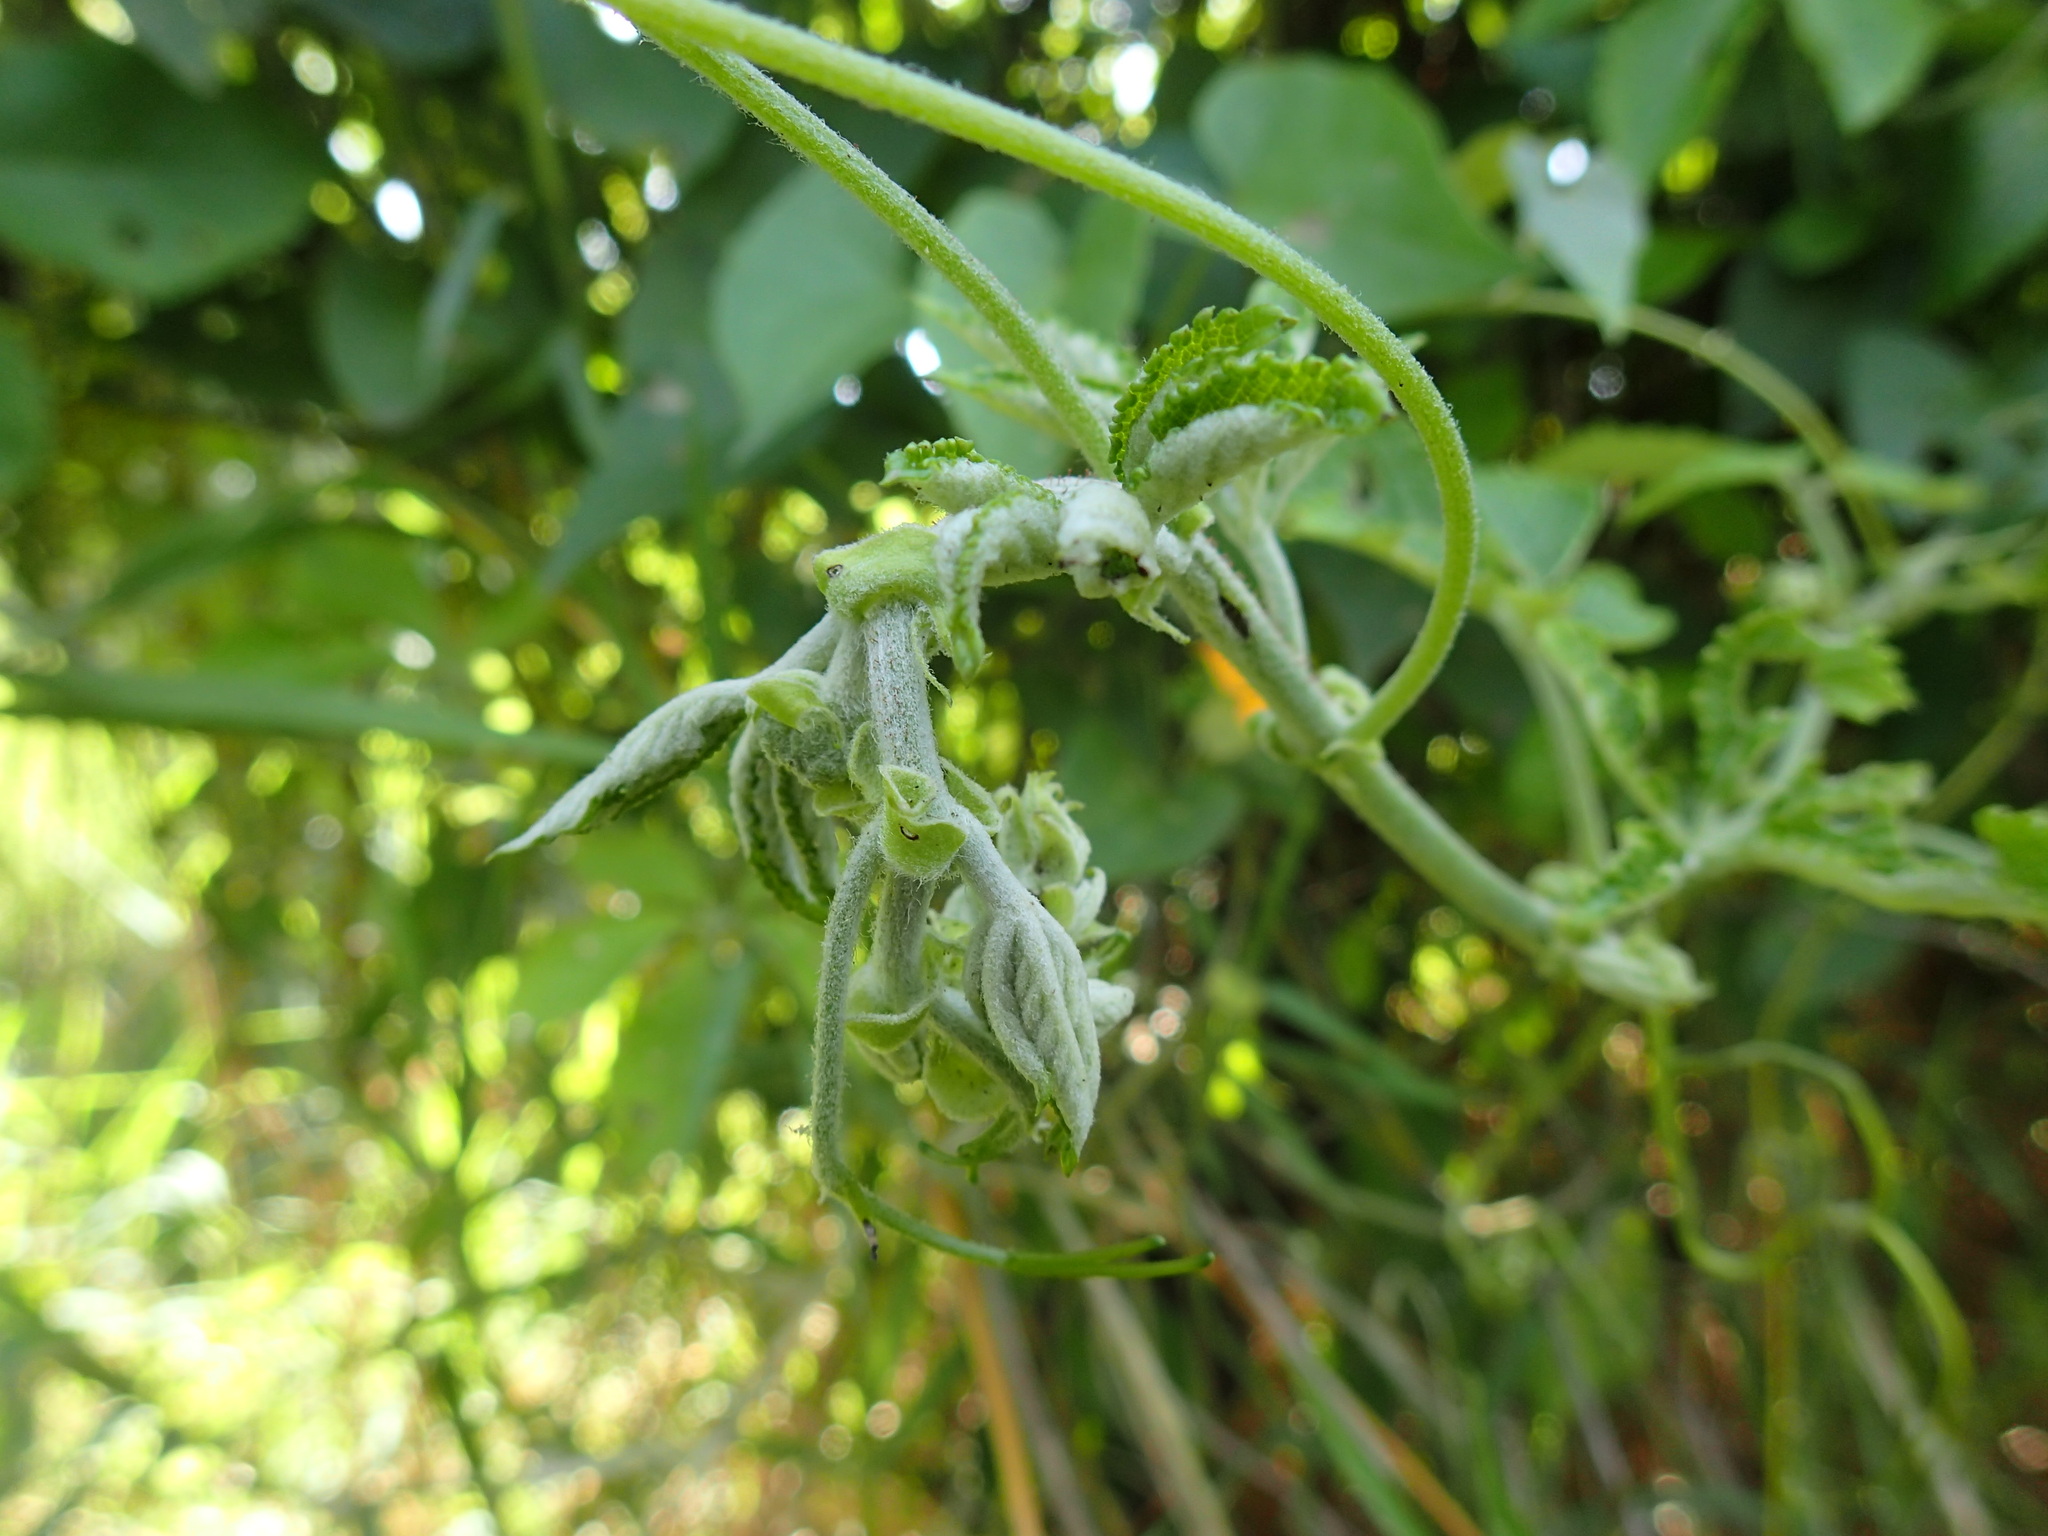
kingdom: Plantae
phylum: Tracheophyta
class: Magnoliopsida
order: Vitales
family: Vitaceae
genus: Cyphostemma
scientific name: Cyphostemma hypoleucum
